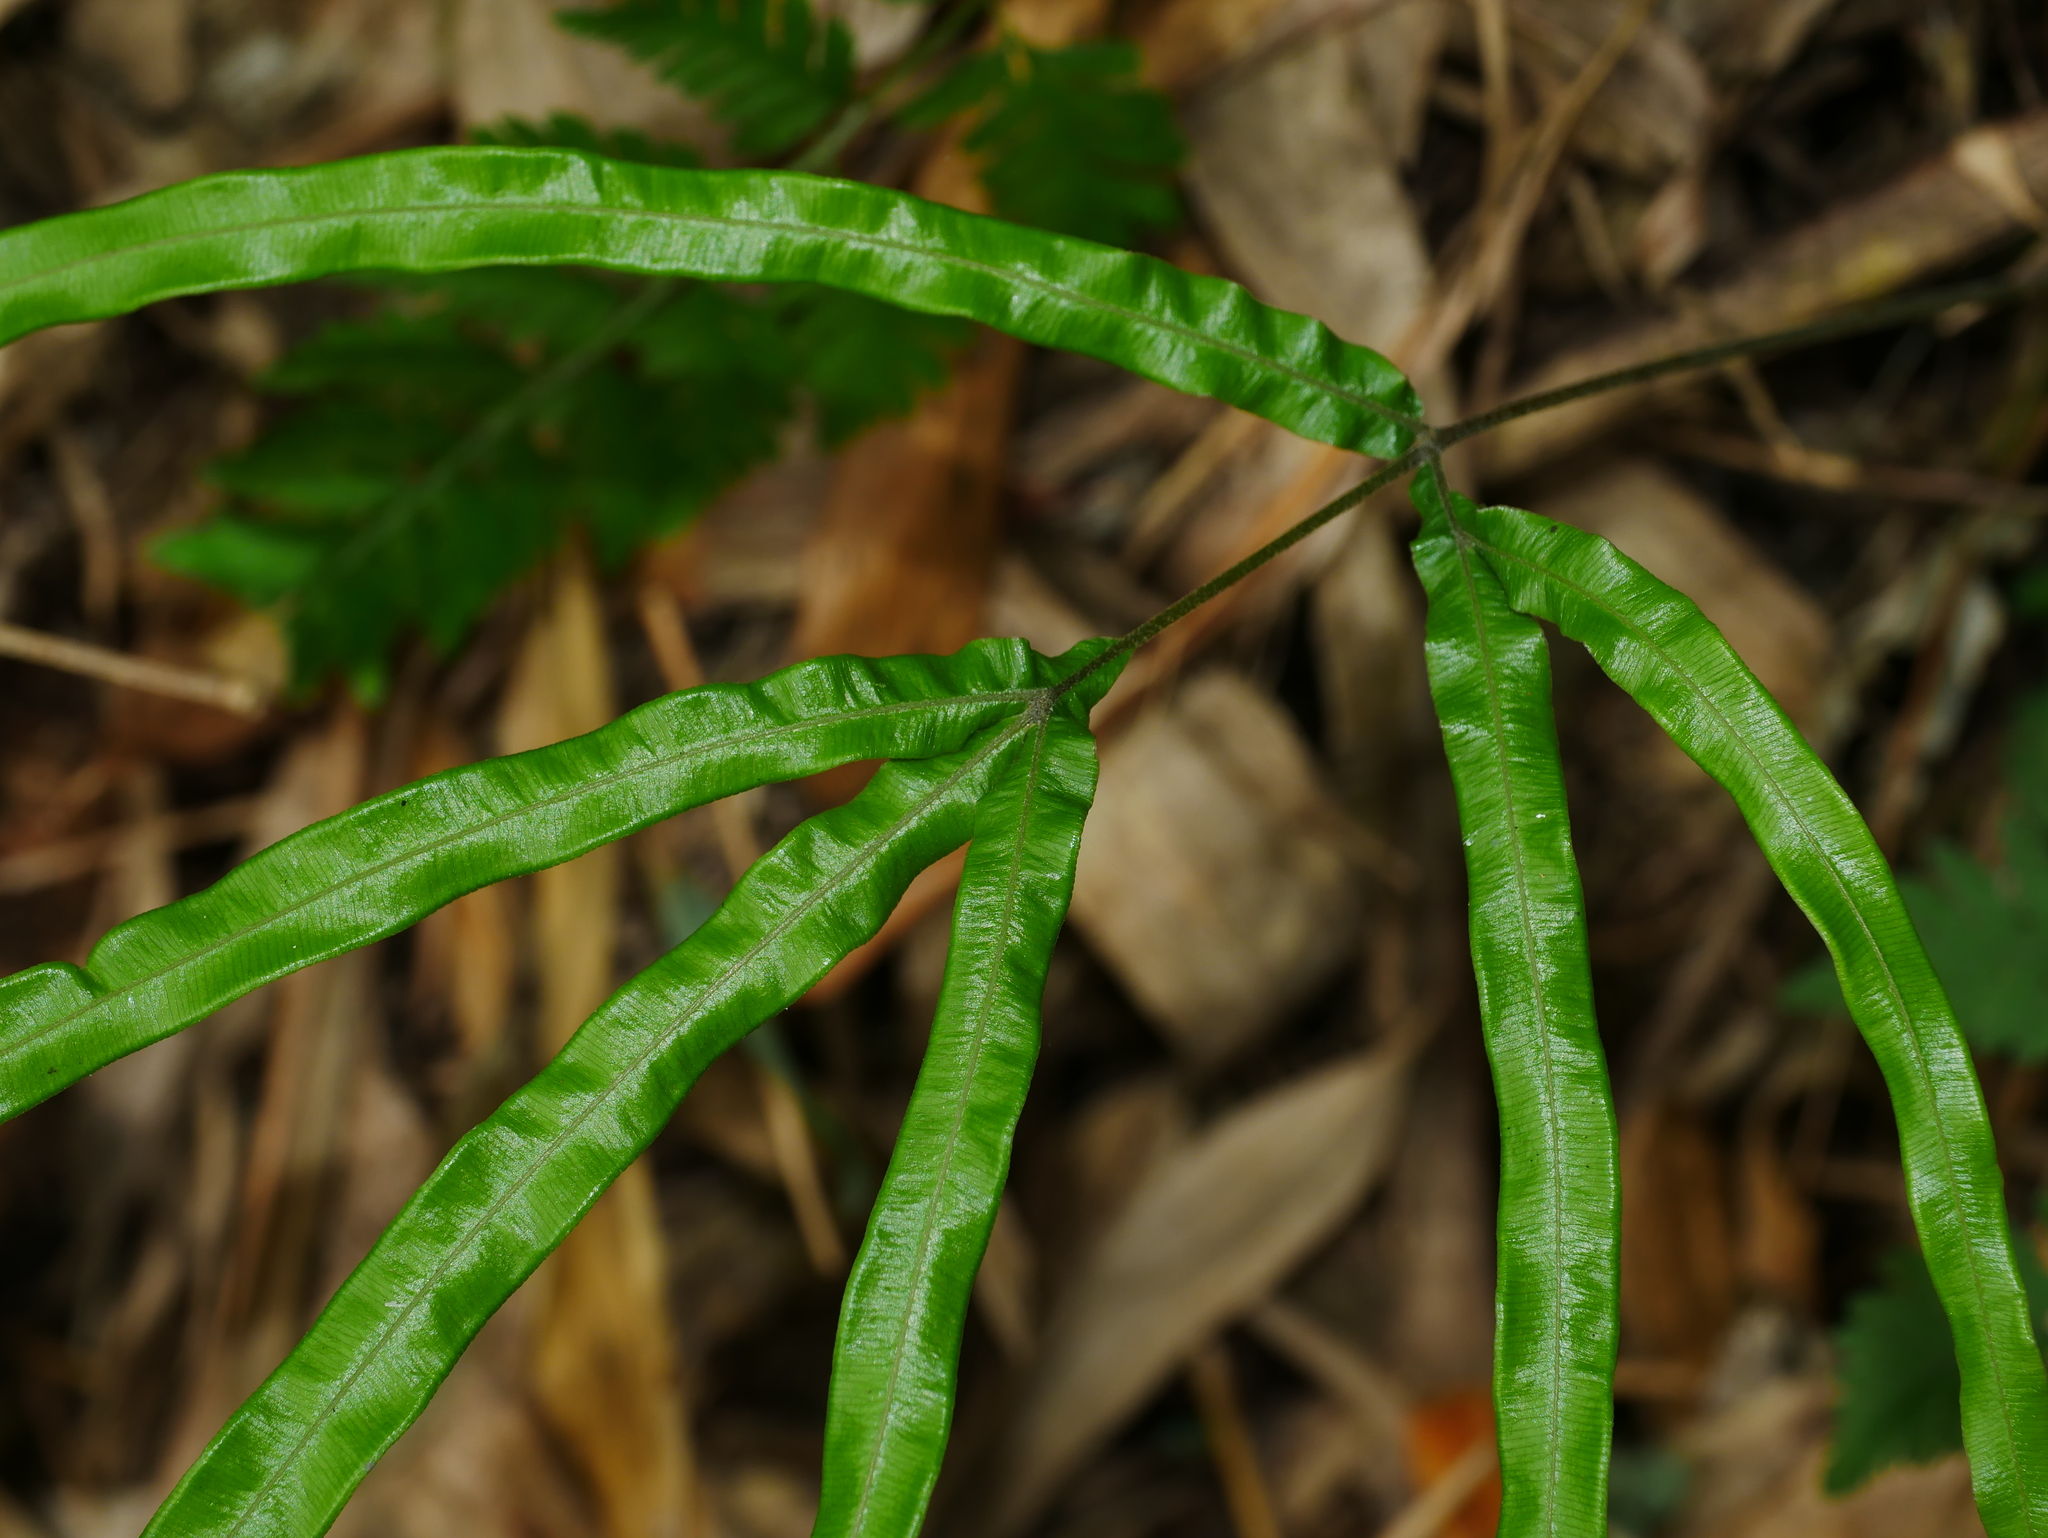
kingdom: Plantae
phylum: Tracheophyta
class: Polypodiopsida
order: Polypodiales
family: Pteridaceae
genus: Pteris
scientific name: Pteris longipinna
